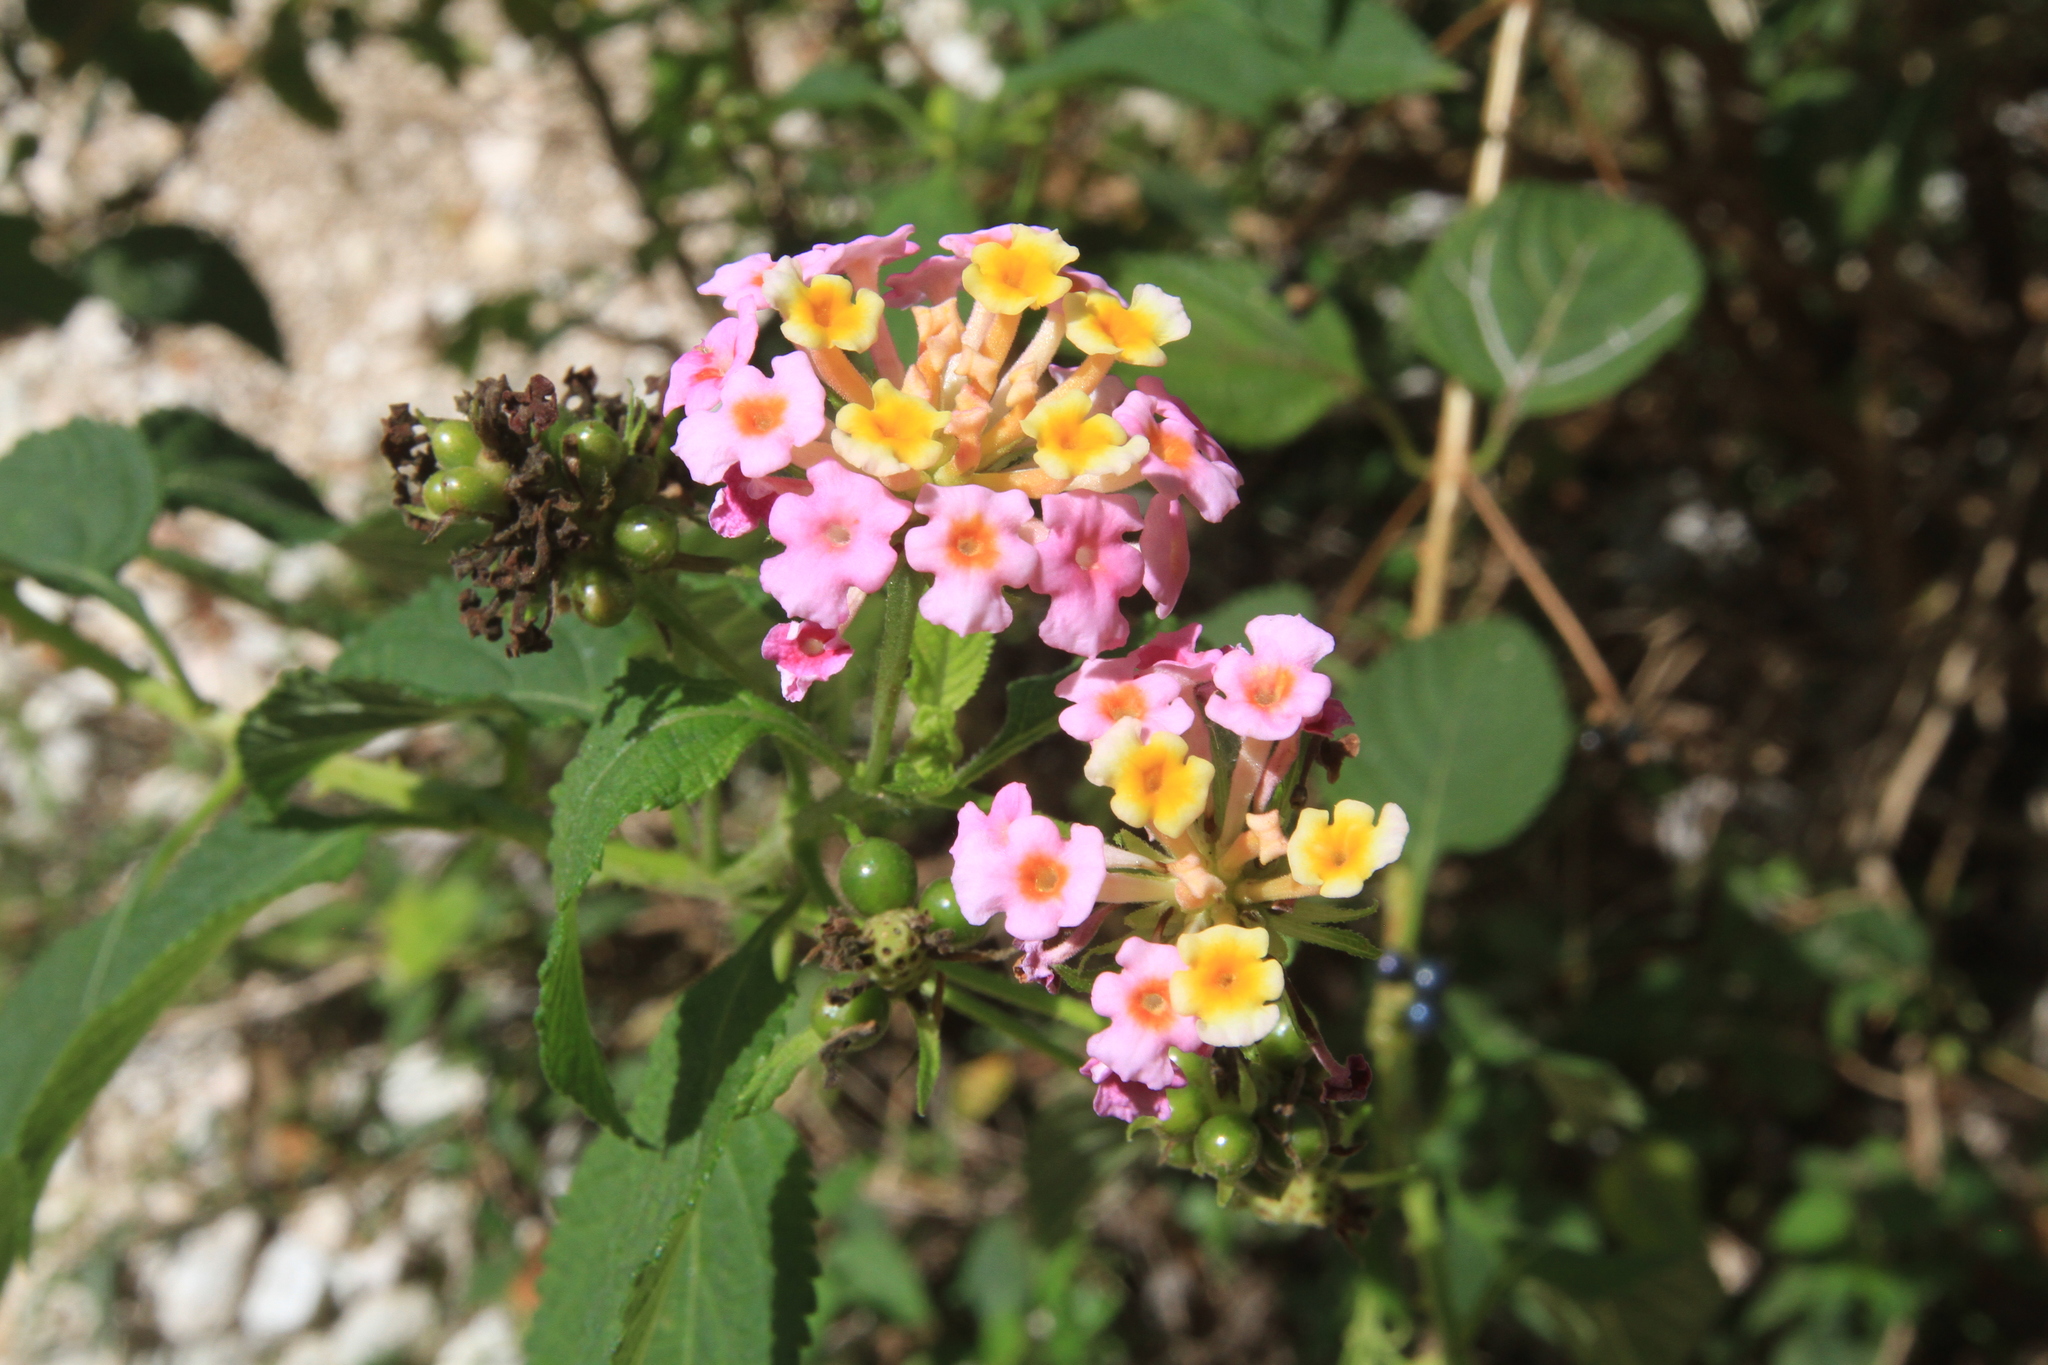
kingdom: Plantae
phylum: Tracheophyta
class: Magnoliopsida
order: Lamiales
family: Verbenaceae
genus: Lantana
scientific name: Lantana camara
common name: Lantana
